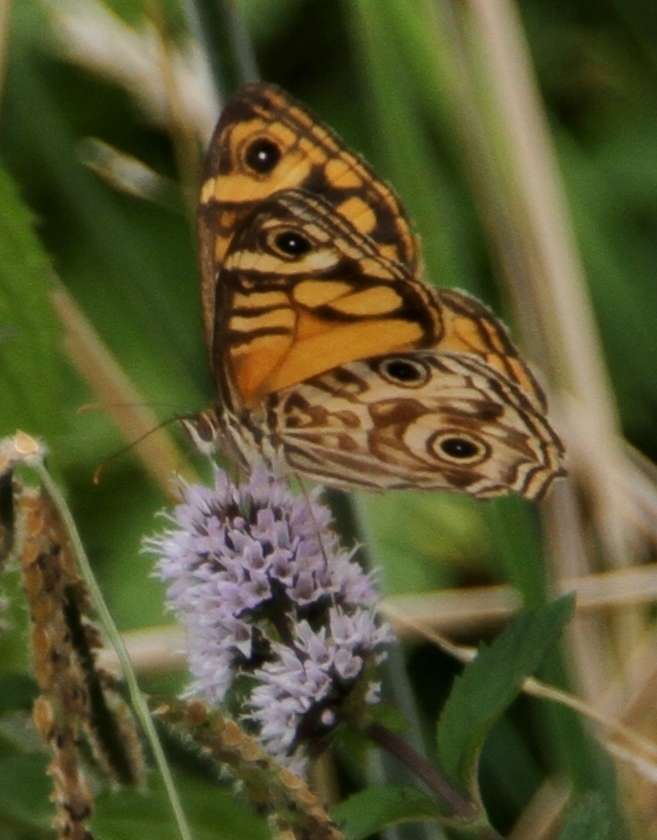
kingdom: Animalia
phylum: Arthropoda
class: Insecta
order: Lepidoptera
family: Nymphalidae
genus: Geitoneura
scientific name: Geitoneura acantha
